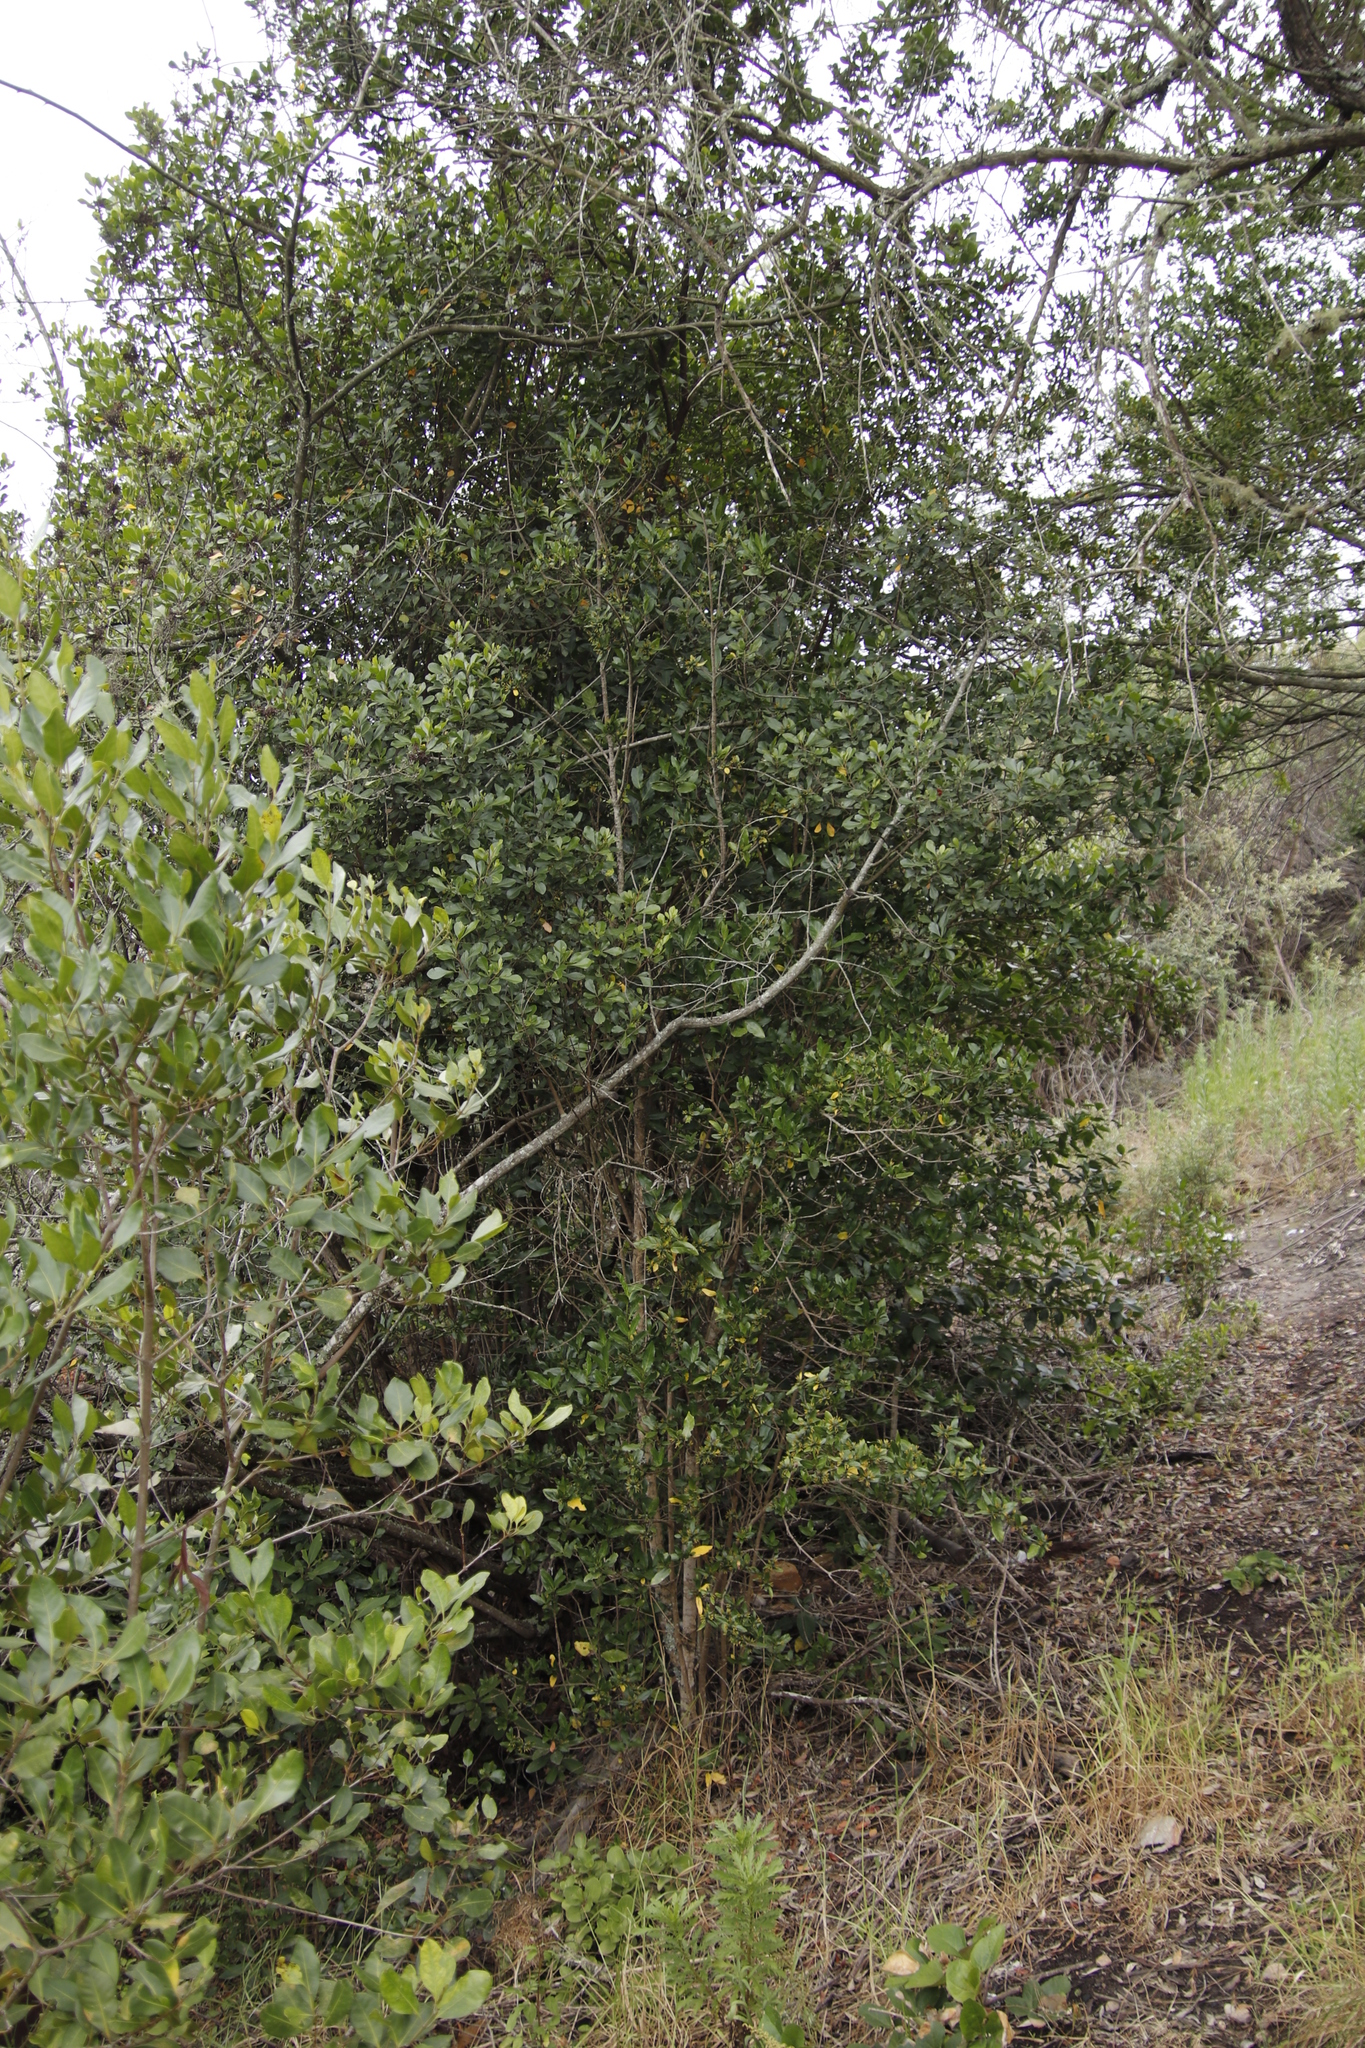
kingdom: Plantae
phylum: Tracheophyta
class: Magnoliopsida
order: Gentianales
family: Rubiaceae
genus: Burchellia
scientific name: Burchellia bubalina
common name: Wild pomegranate
